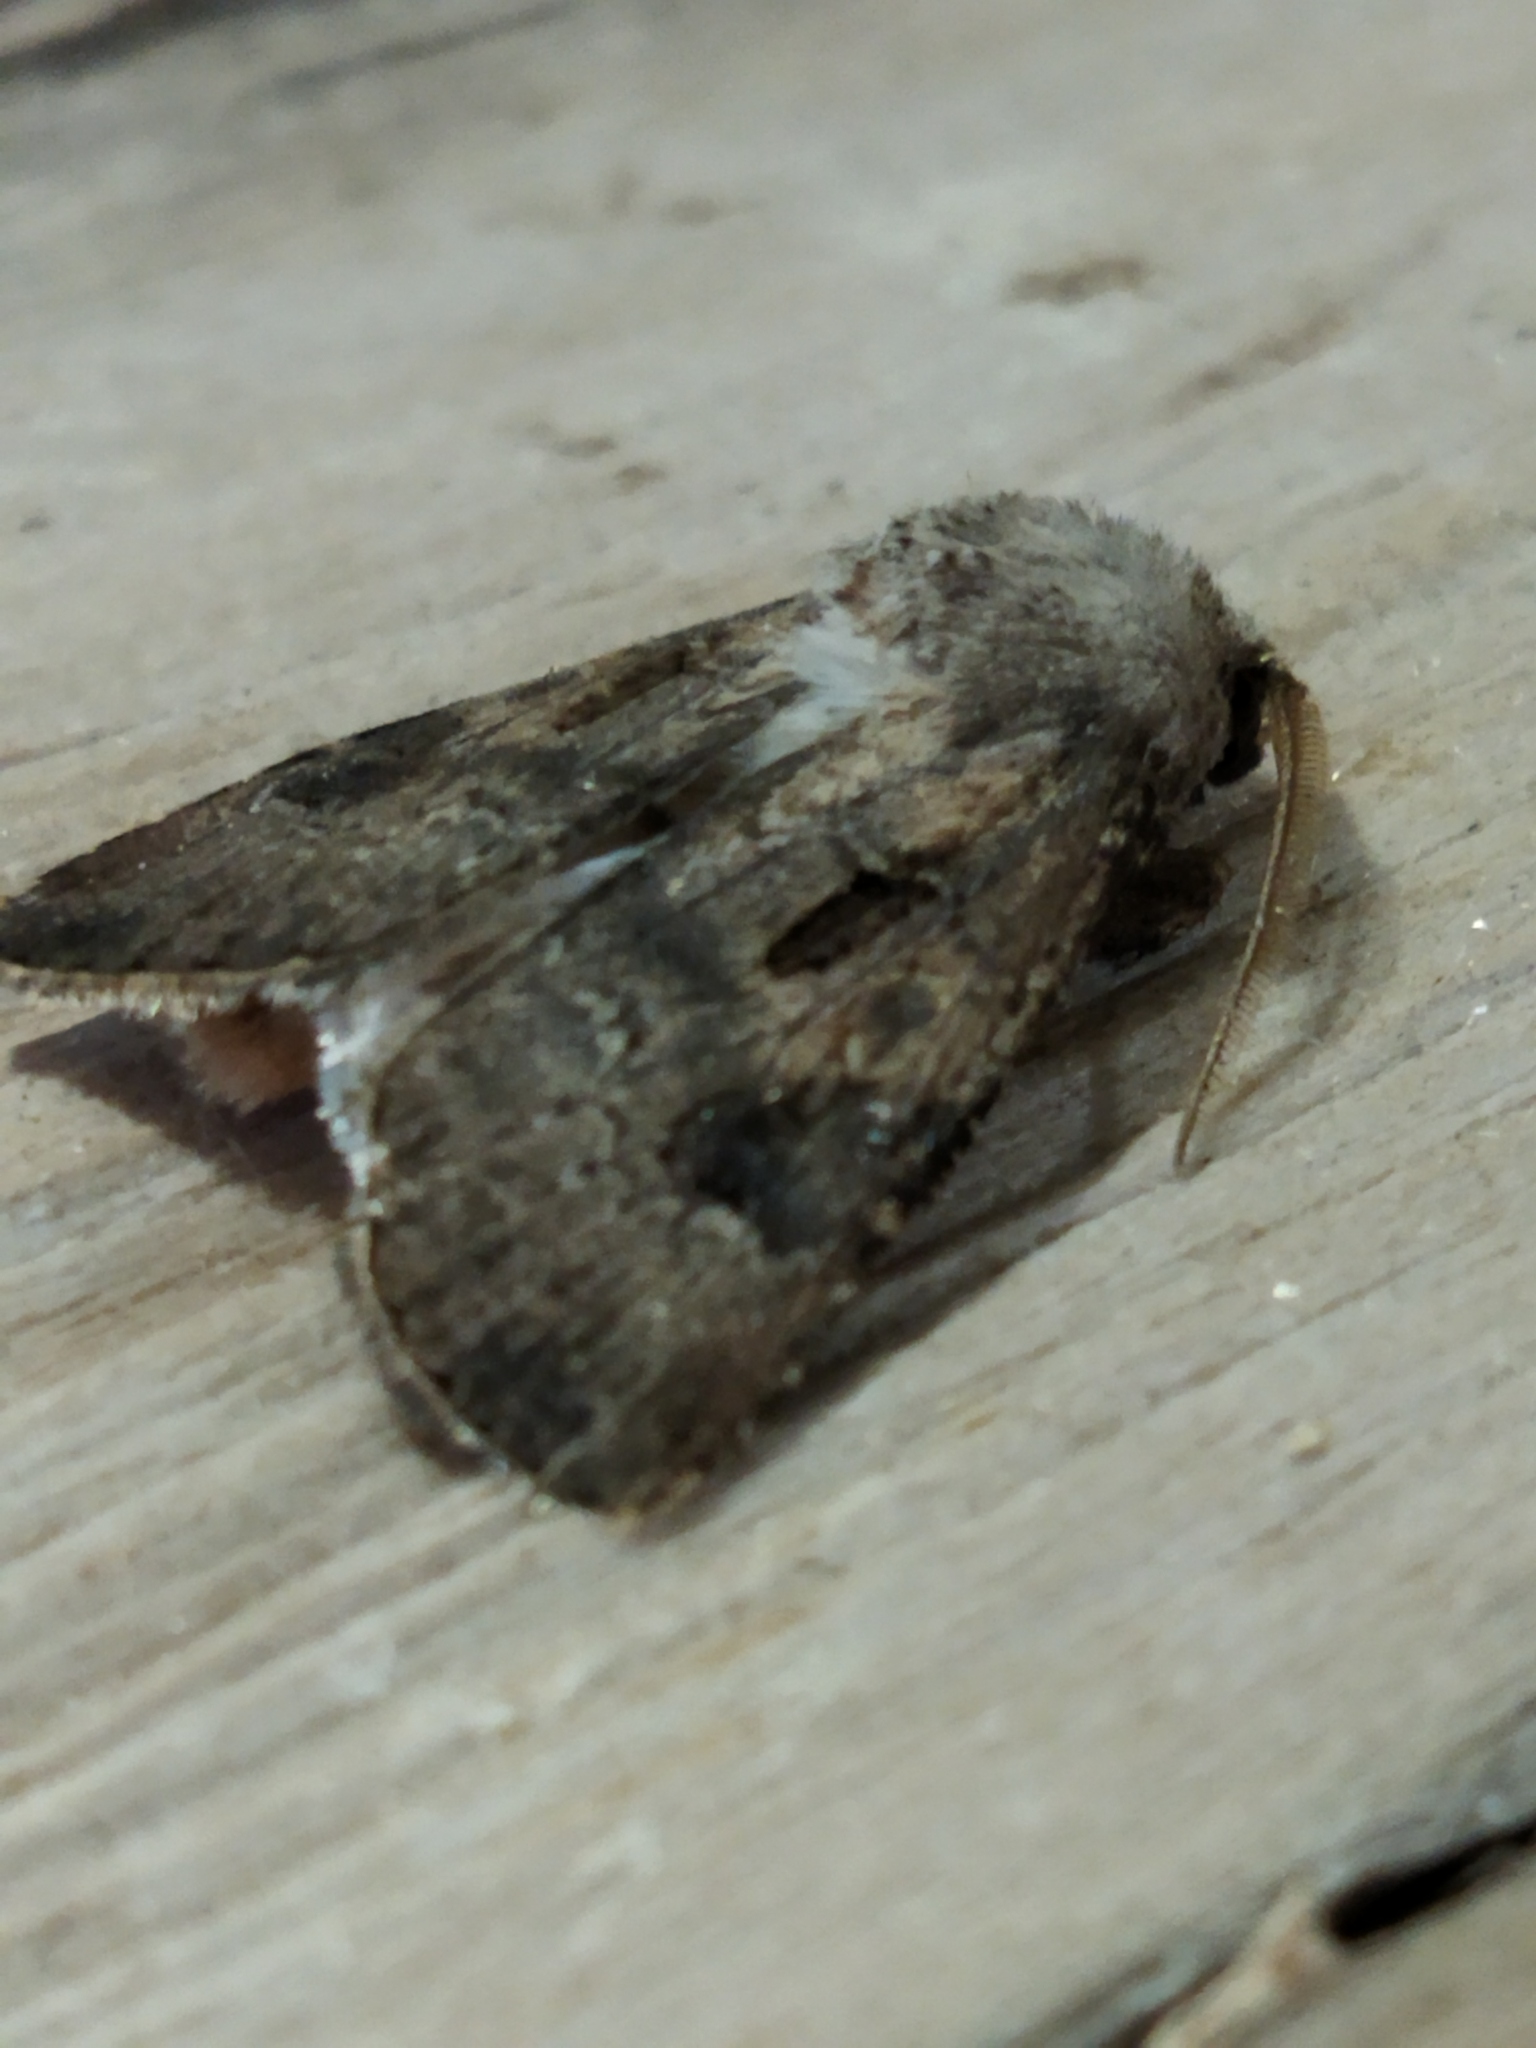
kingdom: Animalia
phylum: Arthropoda
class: Insecta
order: Lepidoptera
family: Noctuidae
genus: Agrotis
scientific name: Agrotis bigramma
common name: Great dart
